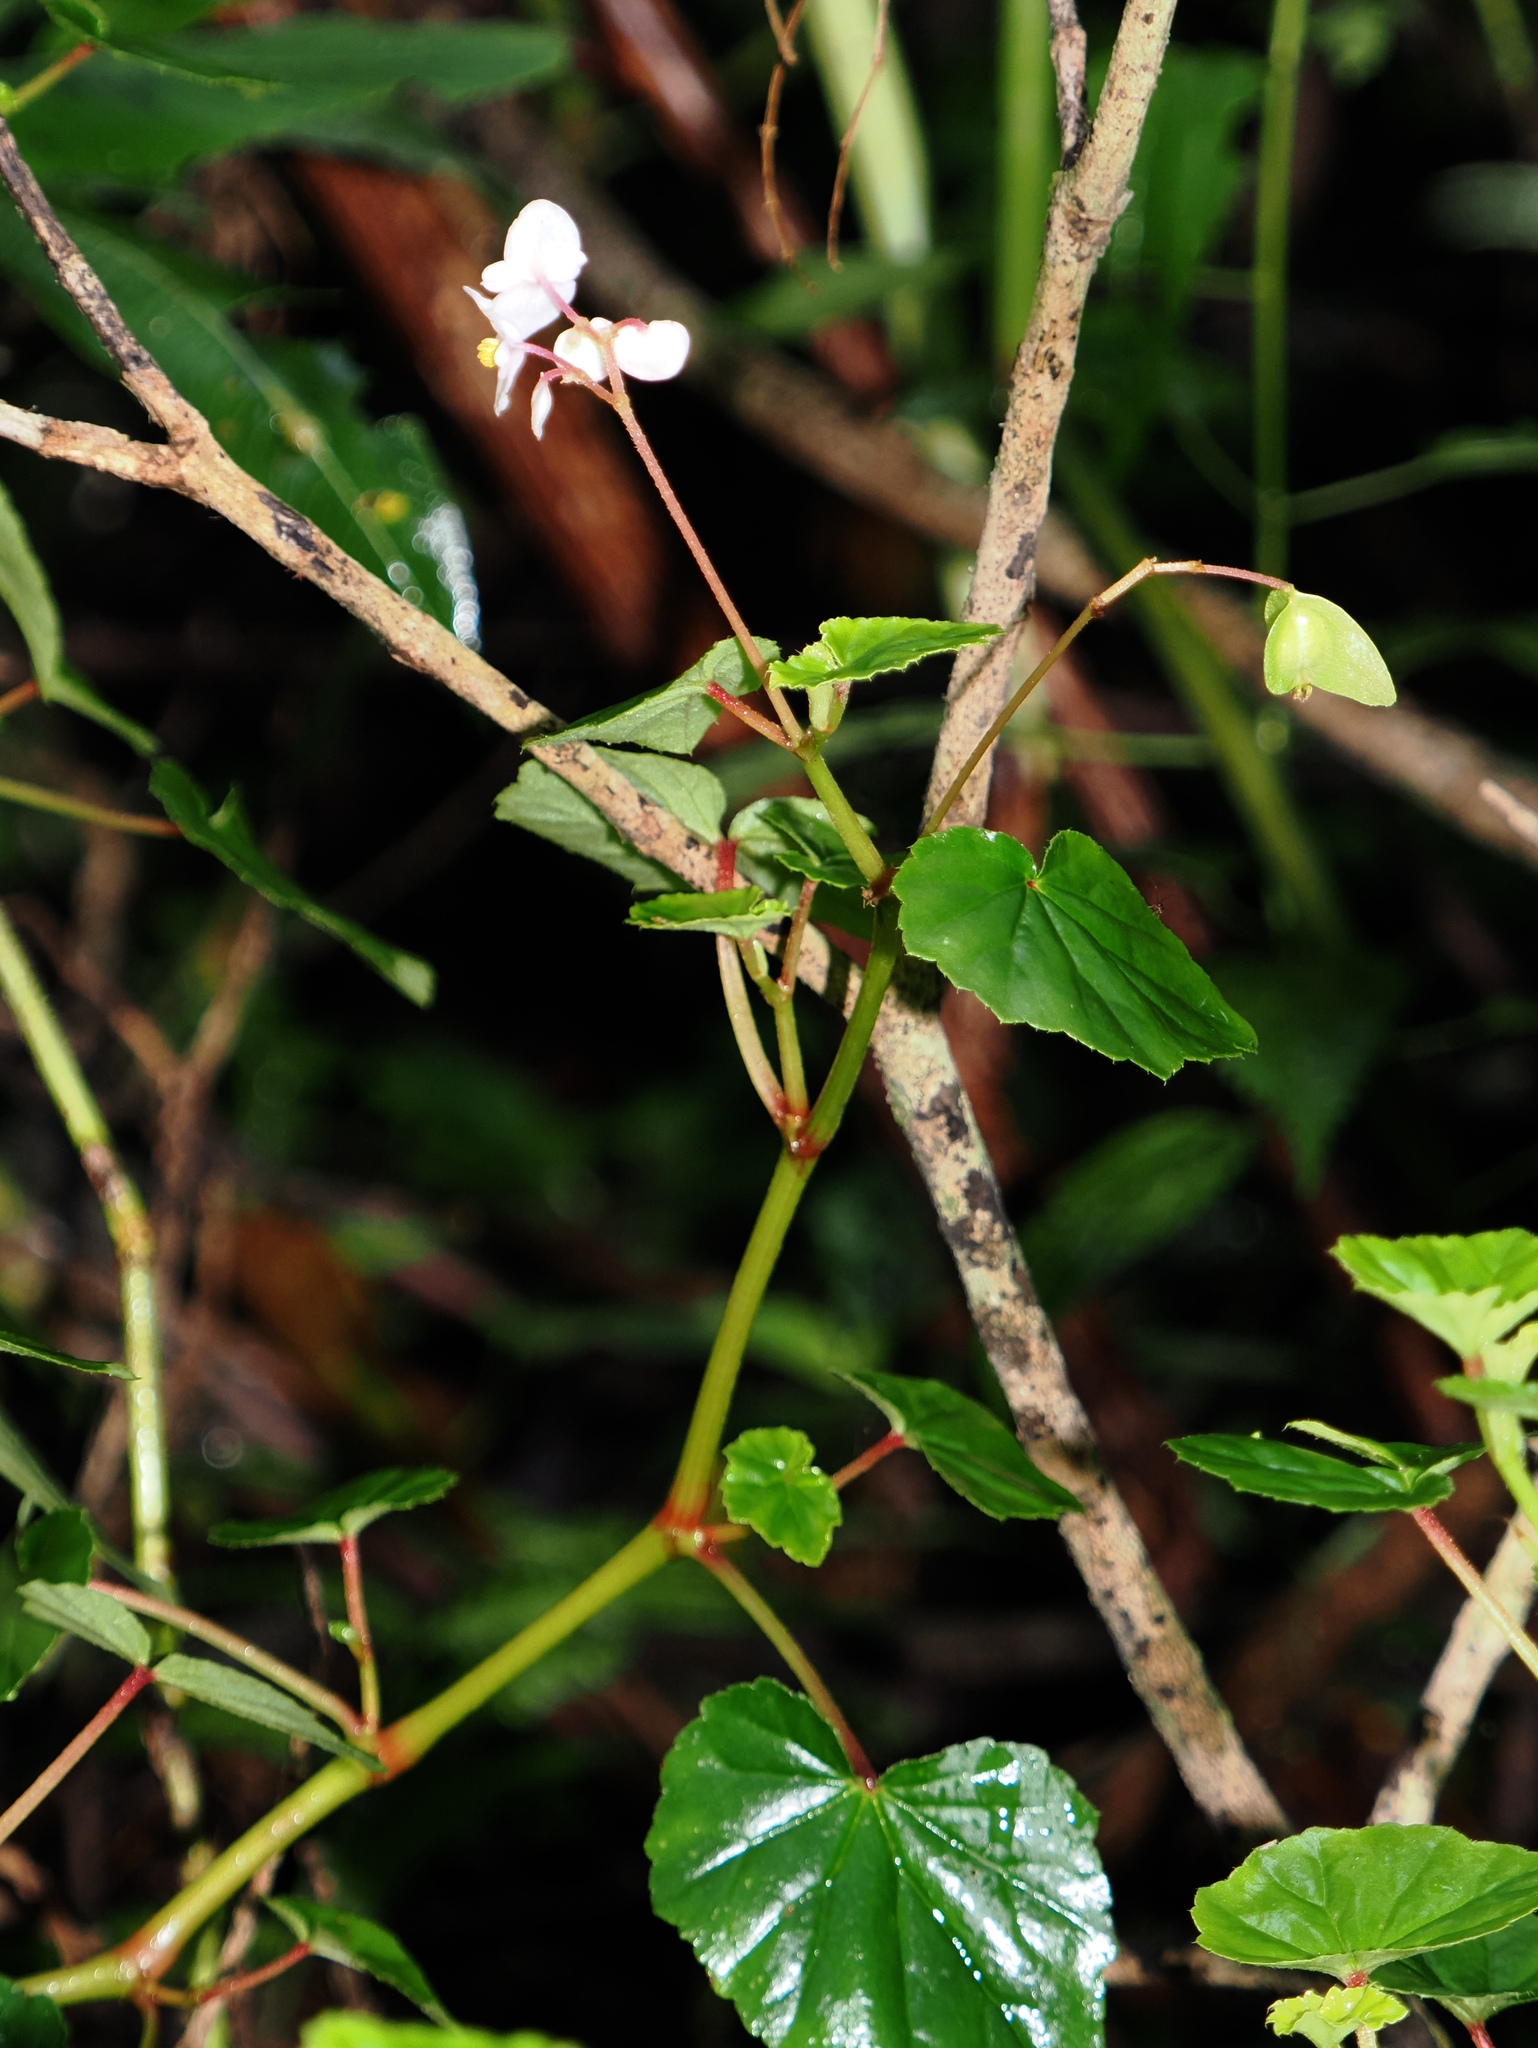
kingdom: Plantae
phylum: Tracheophyta
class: Magnoliopsida
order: Cucurbitales
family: Begoniaceae
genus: Begonia
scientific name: Begonia fischeri
